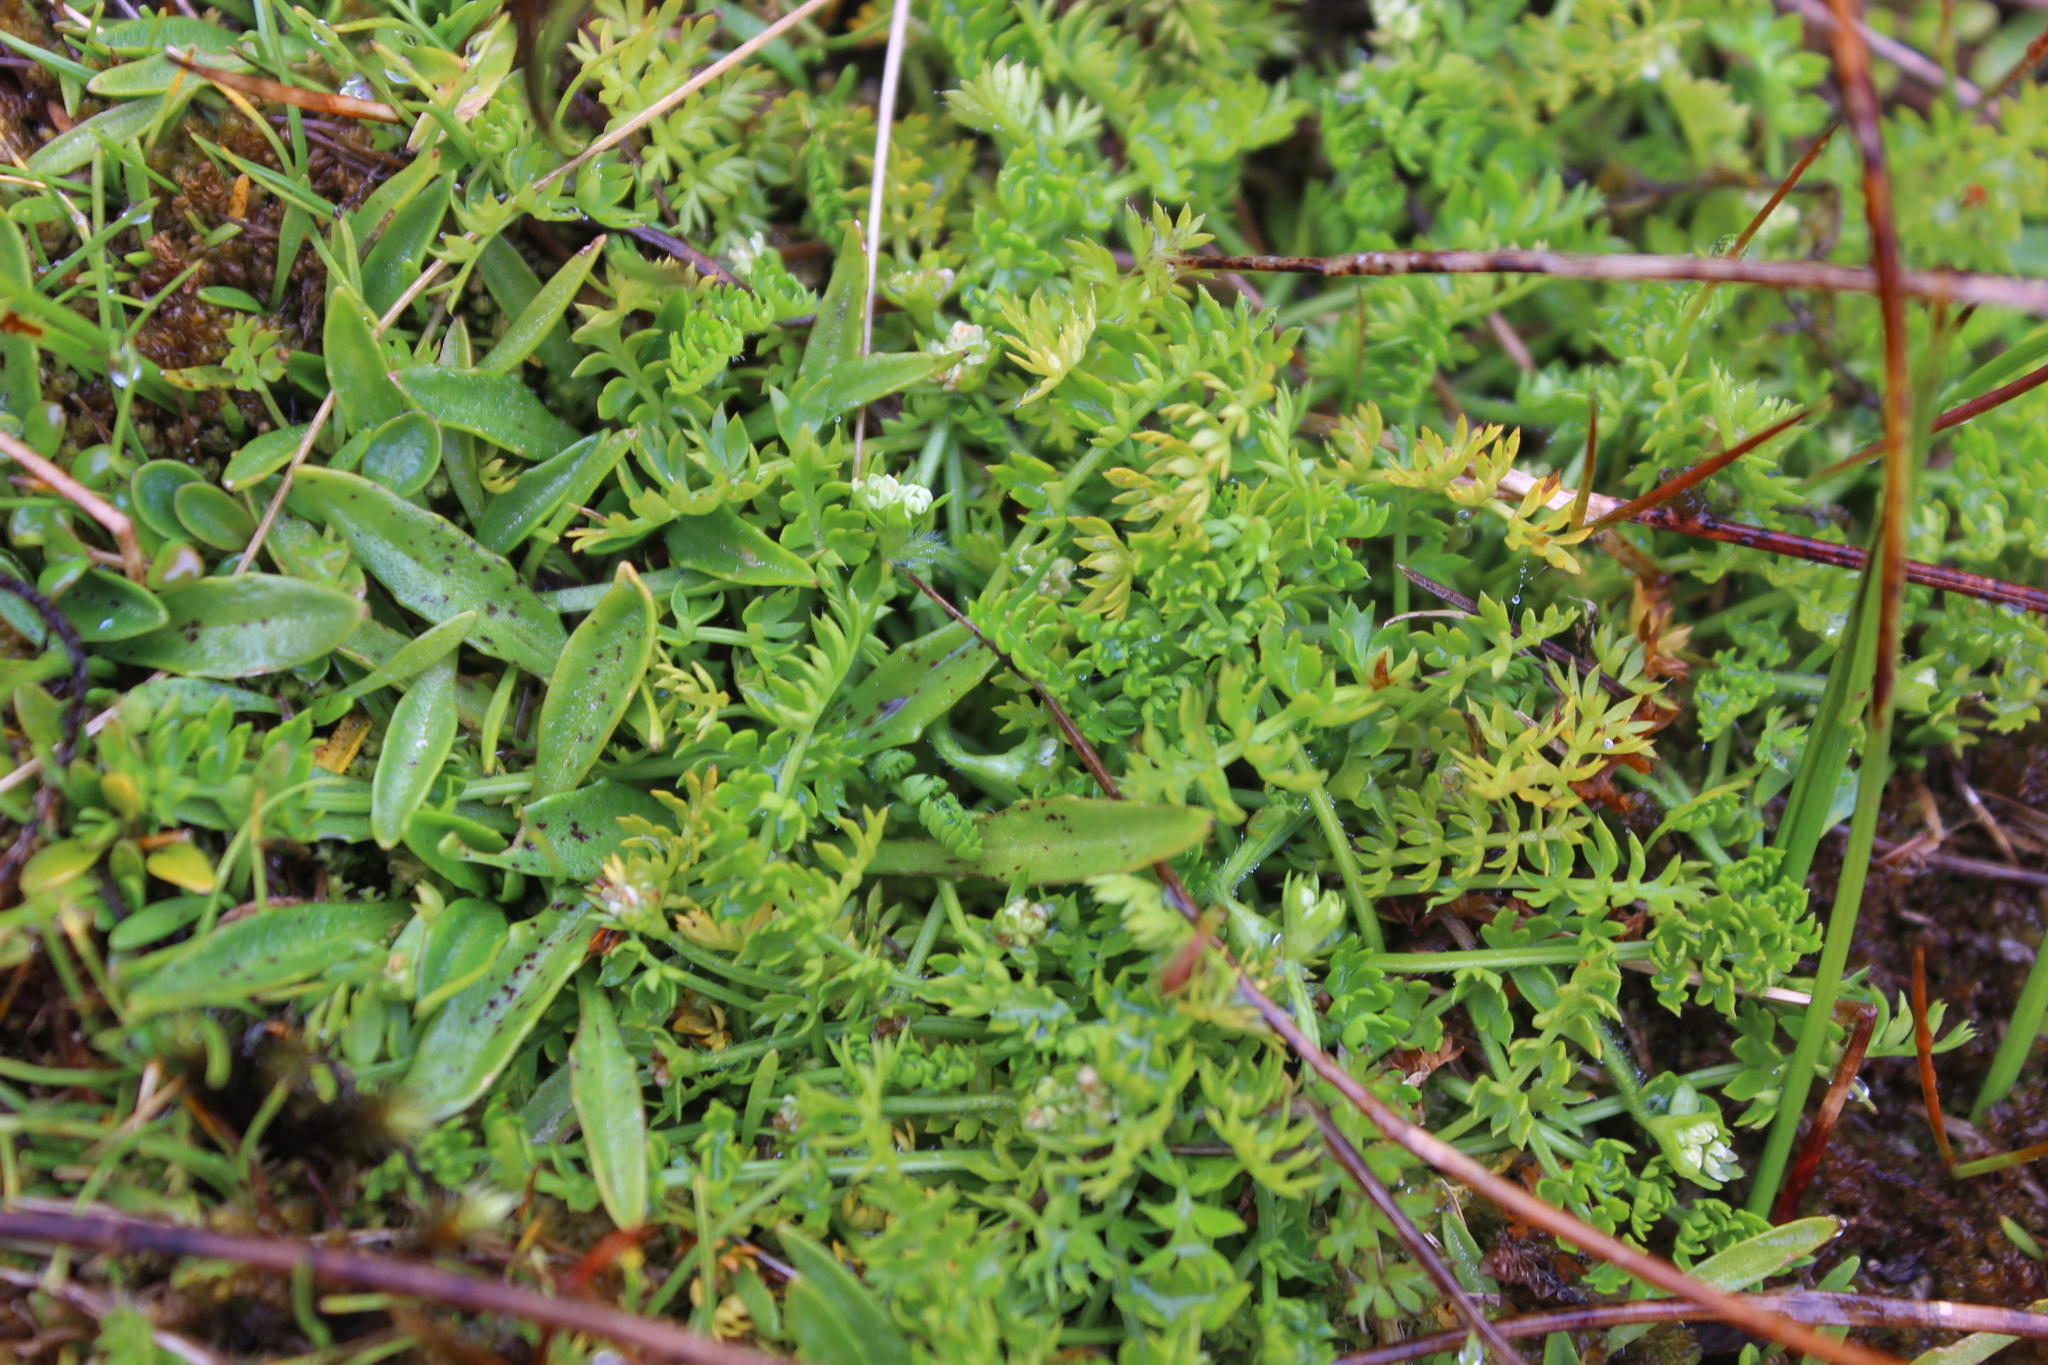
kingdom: Plantae
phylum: Tracheophyta
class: Magnoliopsida
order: Apiales
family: Apiaceae
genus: Chaerophyllum
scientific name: Chaerophyllum colensoi
